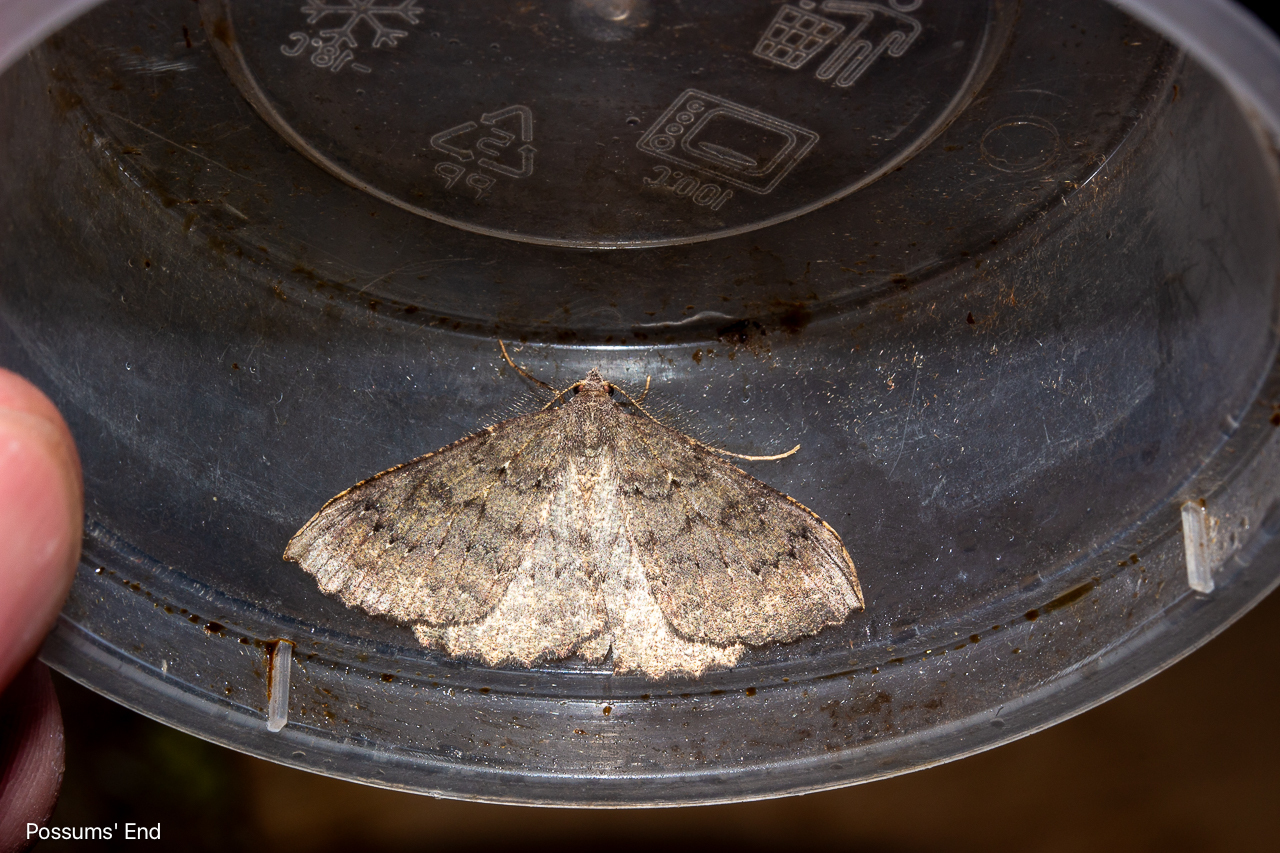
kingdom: Animalia
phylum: Arthropoda
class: Insecta
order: Lepidoptera
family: Geometridae
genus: Cleora
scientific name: Cleora scriptaria
